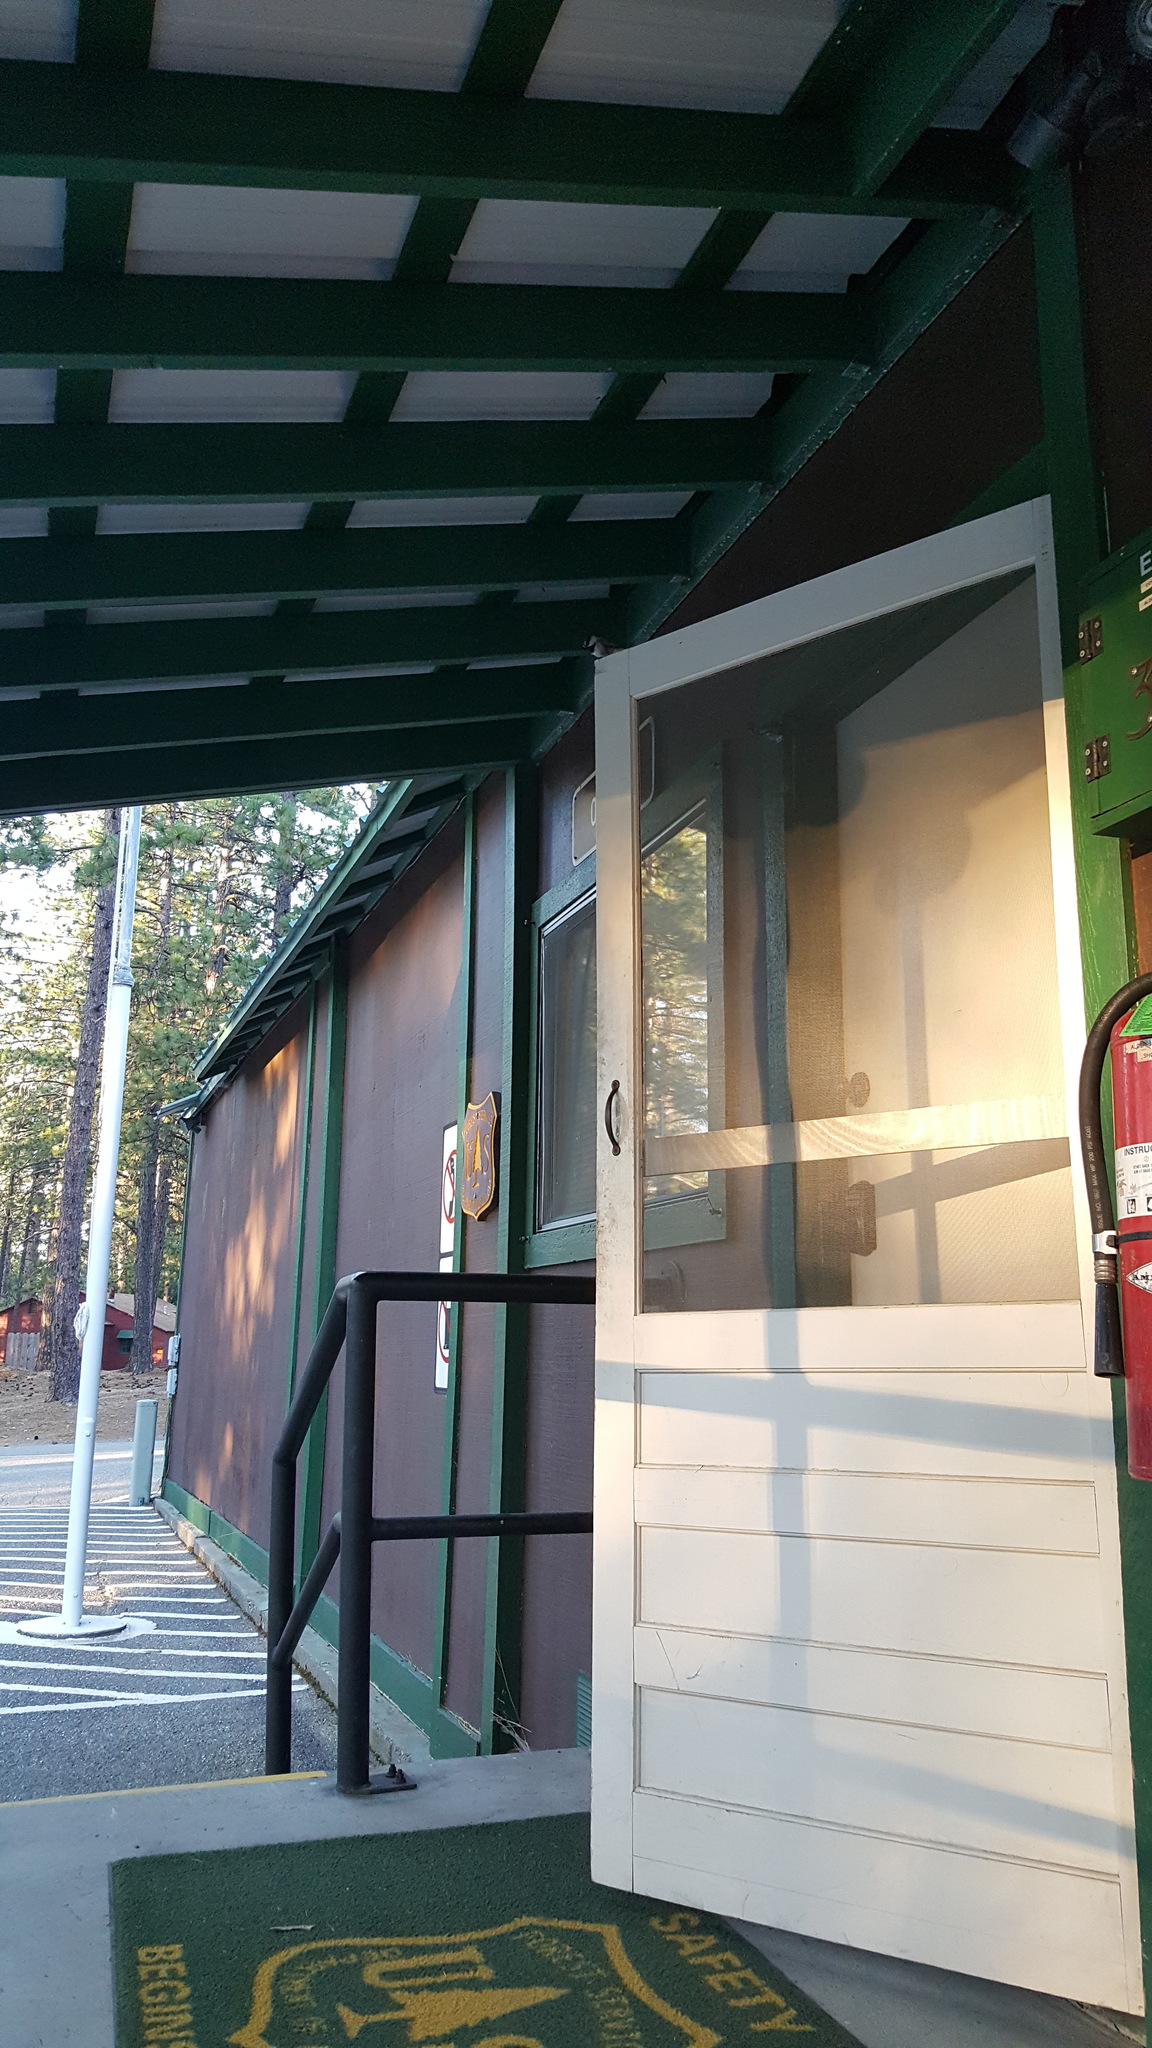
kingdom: Animalia
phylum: Chordata
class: Aves
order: Passeriformes
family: Paridae
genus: Poecile
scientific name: Poecile gambeli
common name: Mountain chickadee
